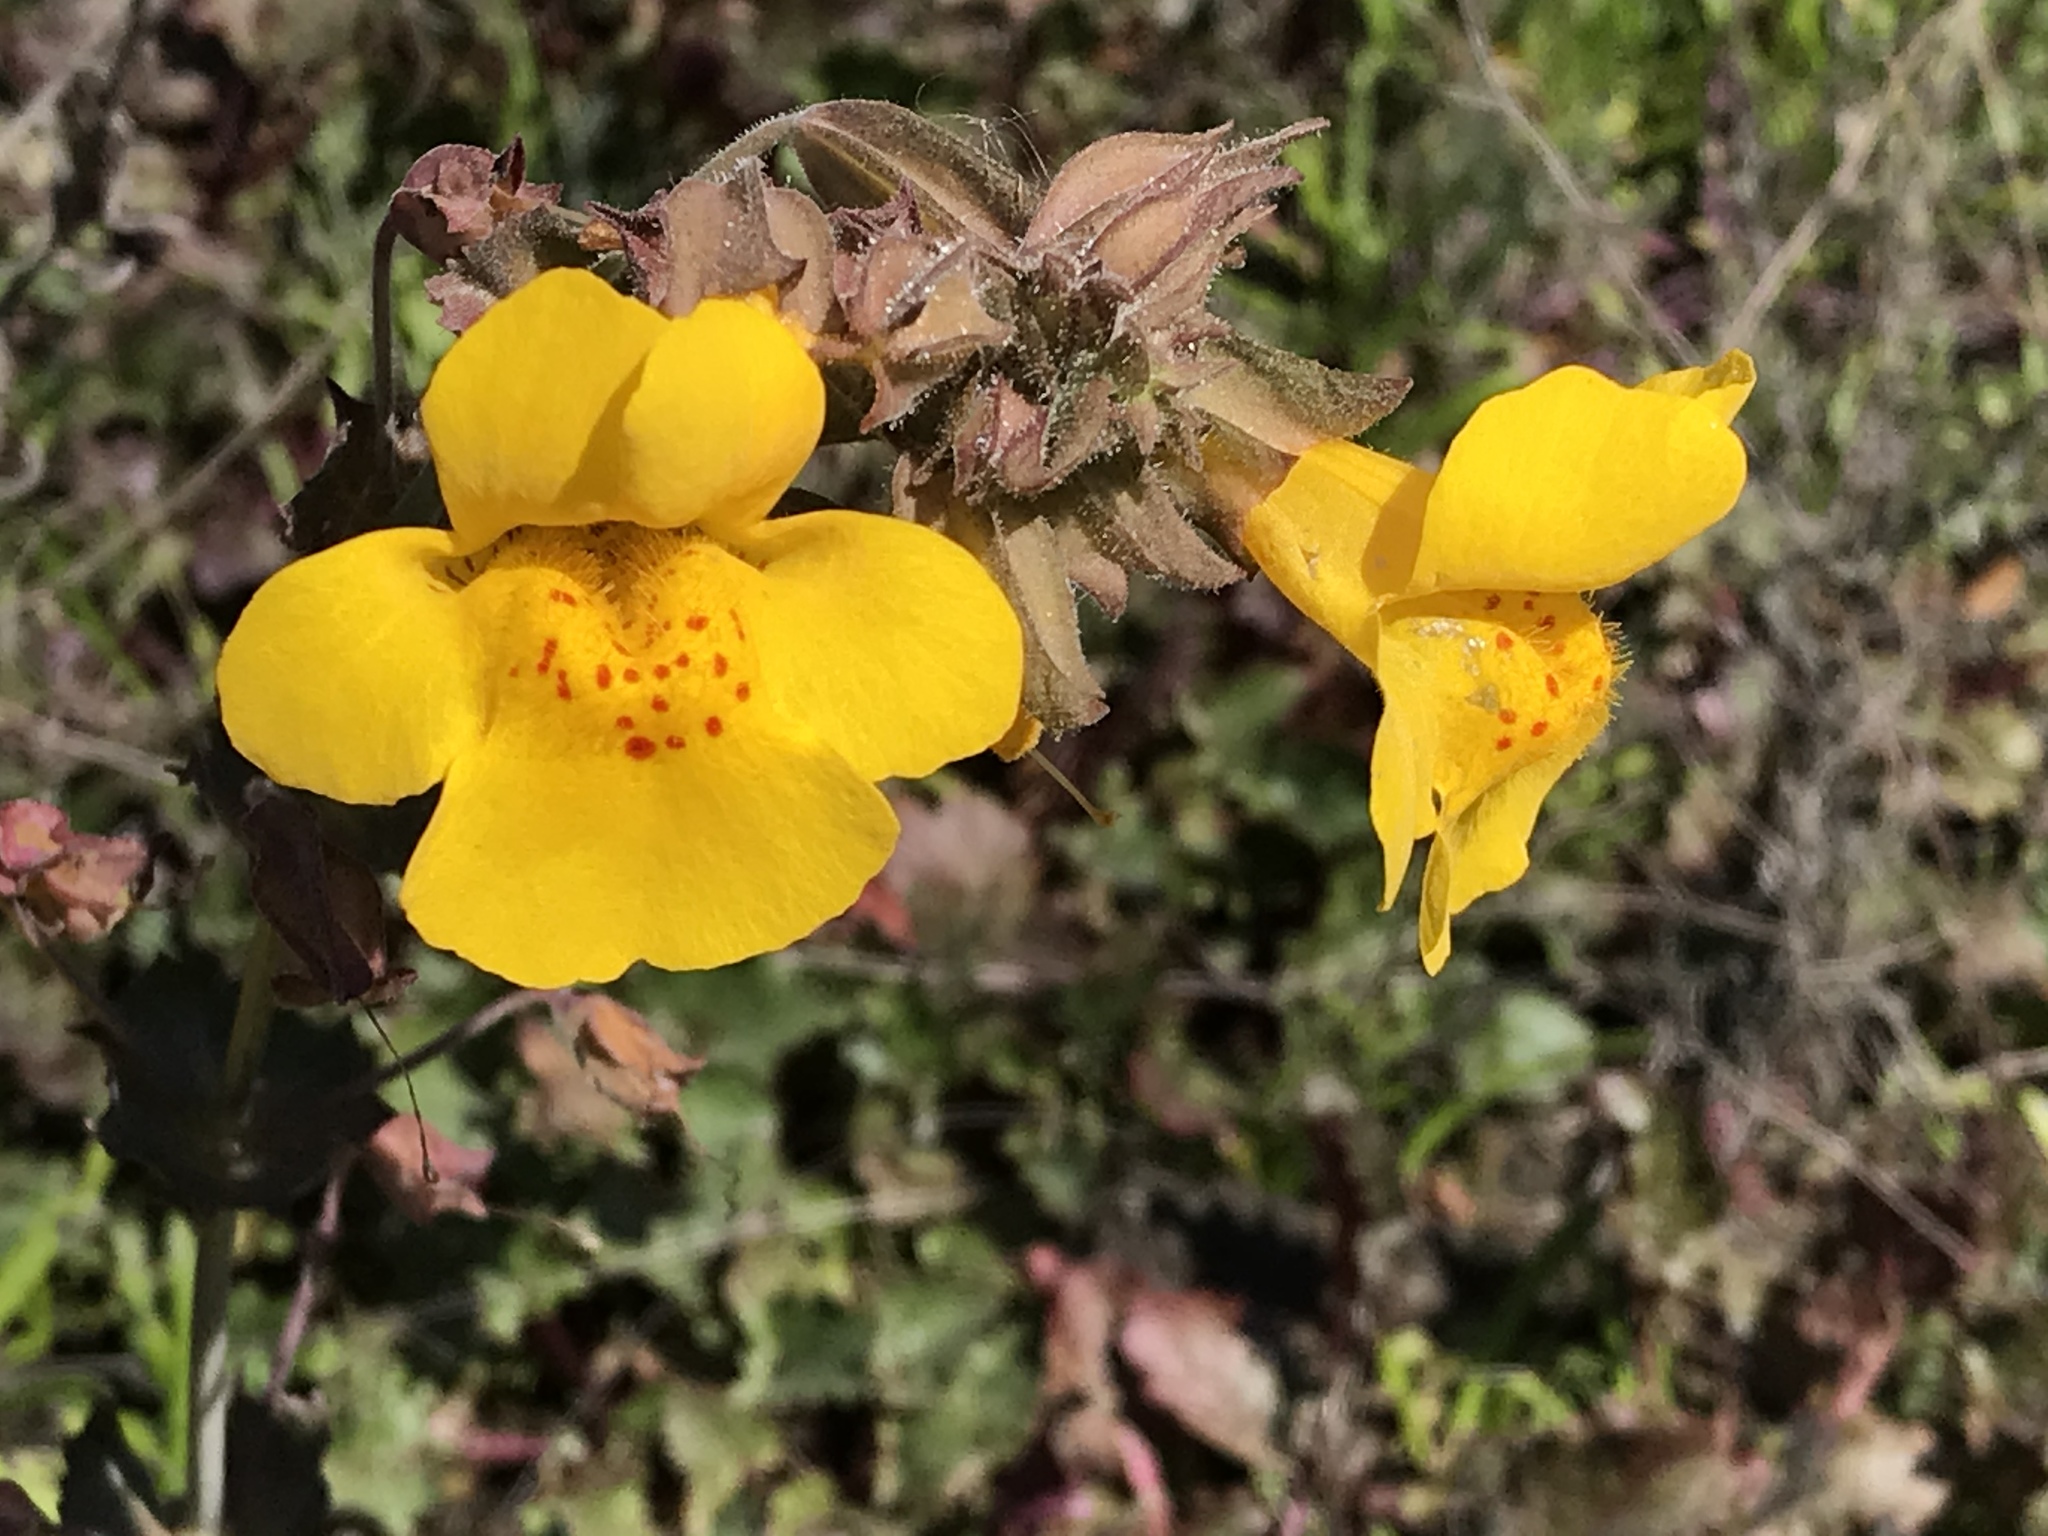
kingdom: Plantae
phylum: Tracheophyta
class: Magnoliopsida
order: Lamiales
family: Phrymaceae
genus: Erythranthe
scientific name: Erythranthe guttata
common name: Monkeyflower
